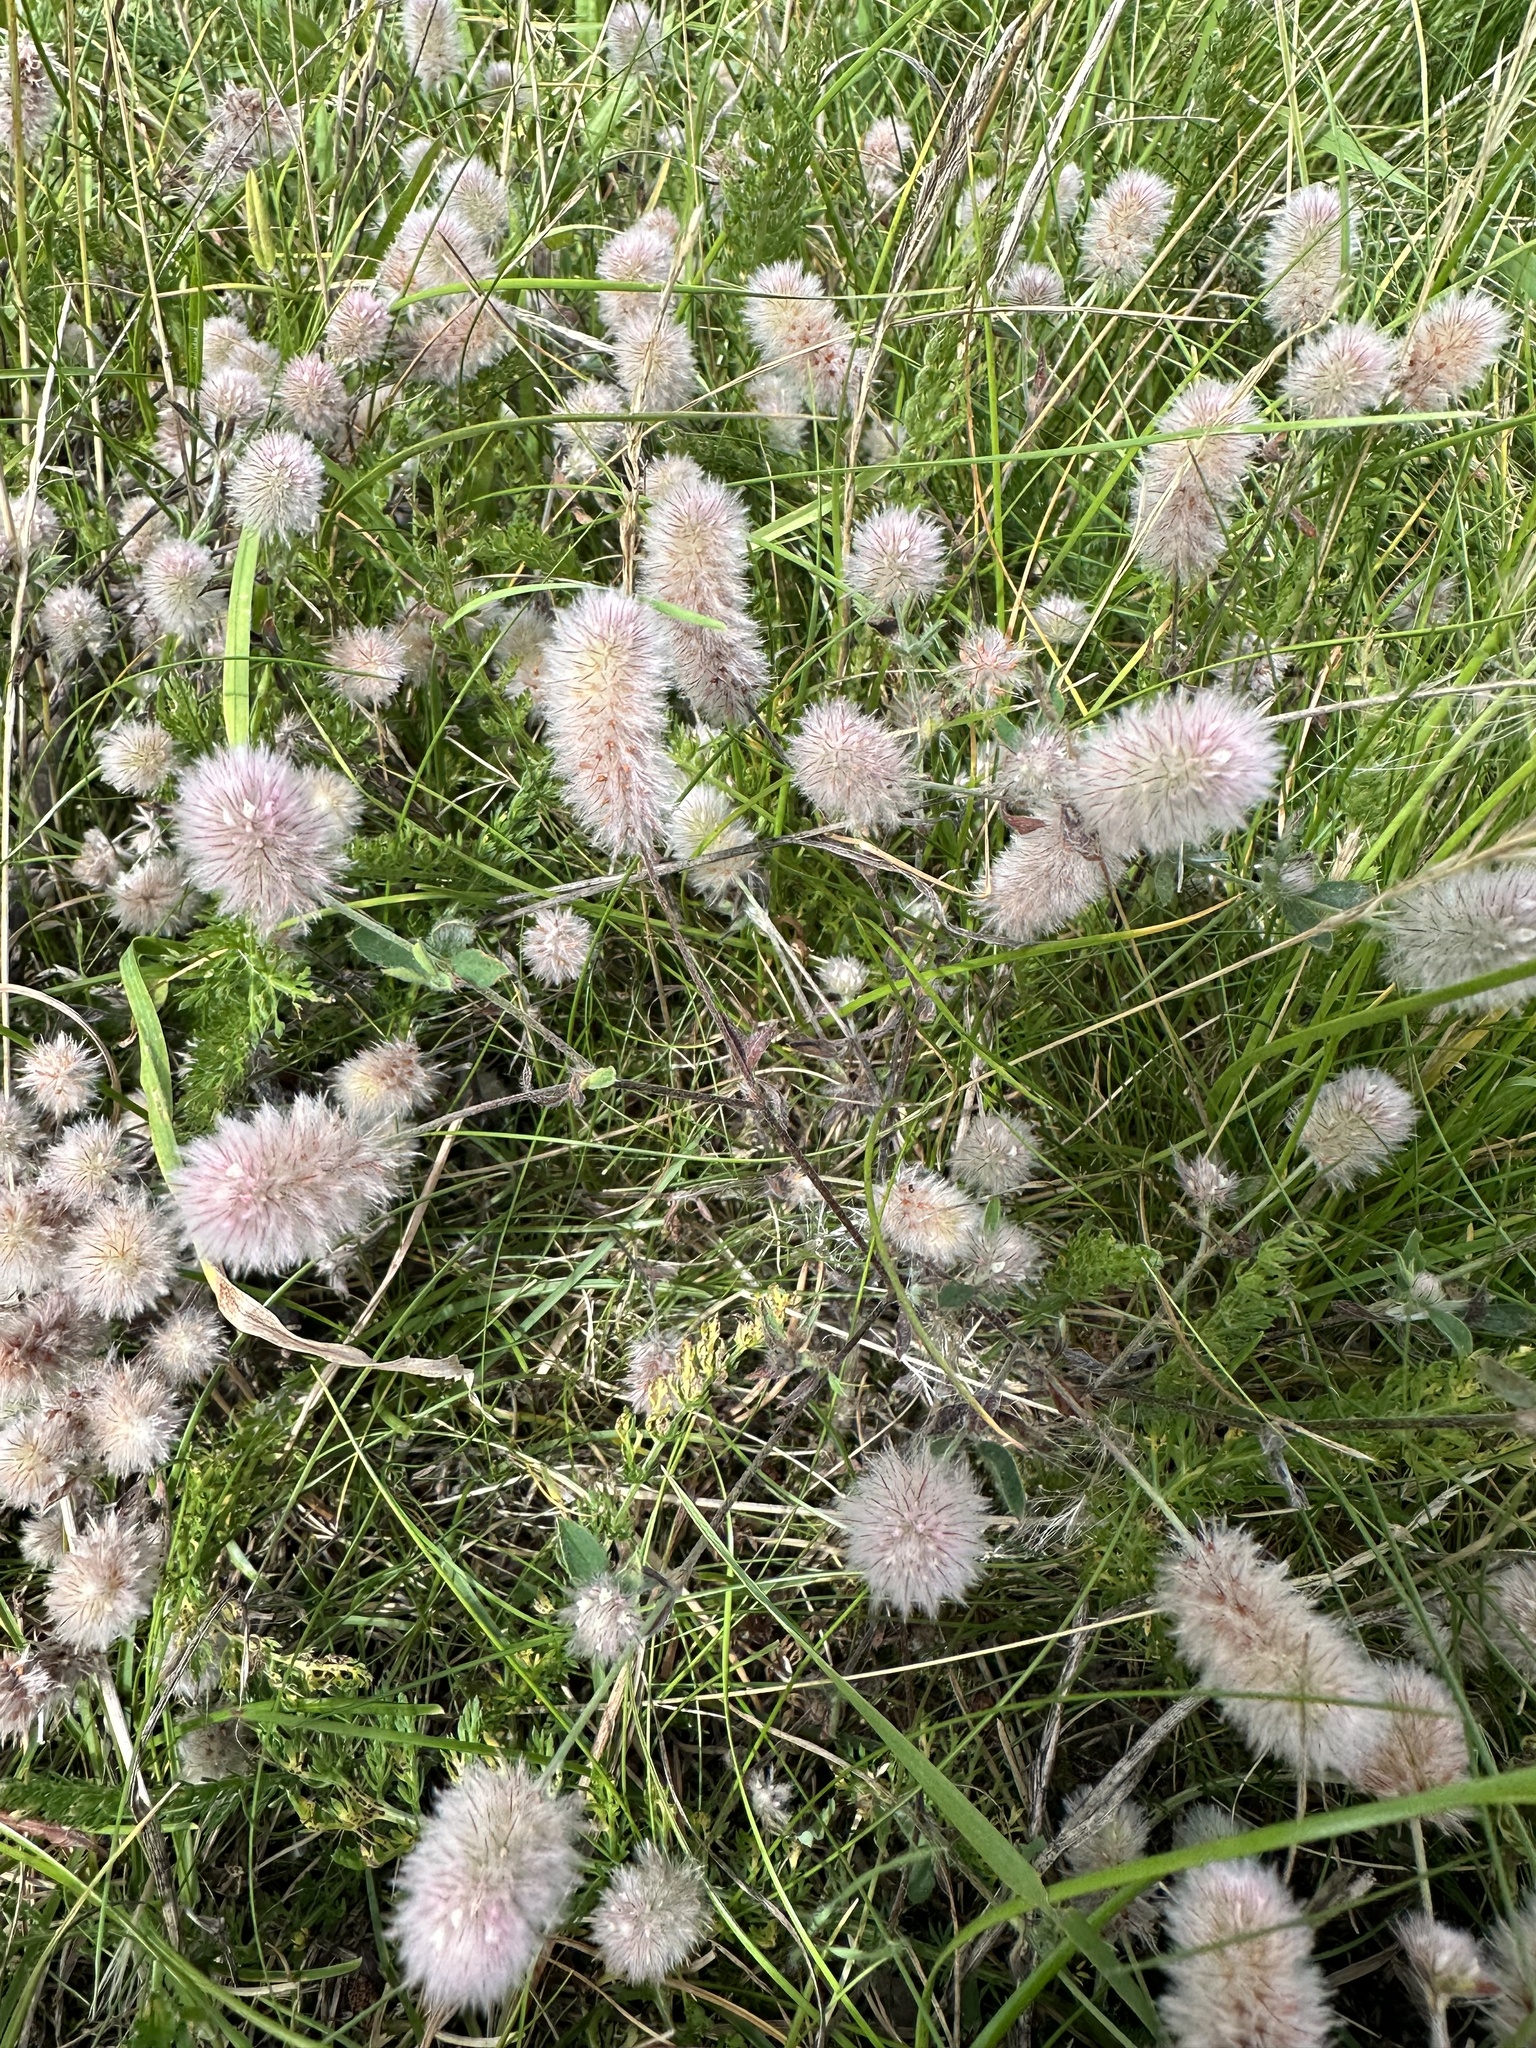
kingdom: Plantae
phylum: Tracheophyta
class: Magnoliopsida
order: Fabales
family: Fabaceae
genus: Trifolium
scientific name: Trifolium arvense
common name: Hare's-foot clover
